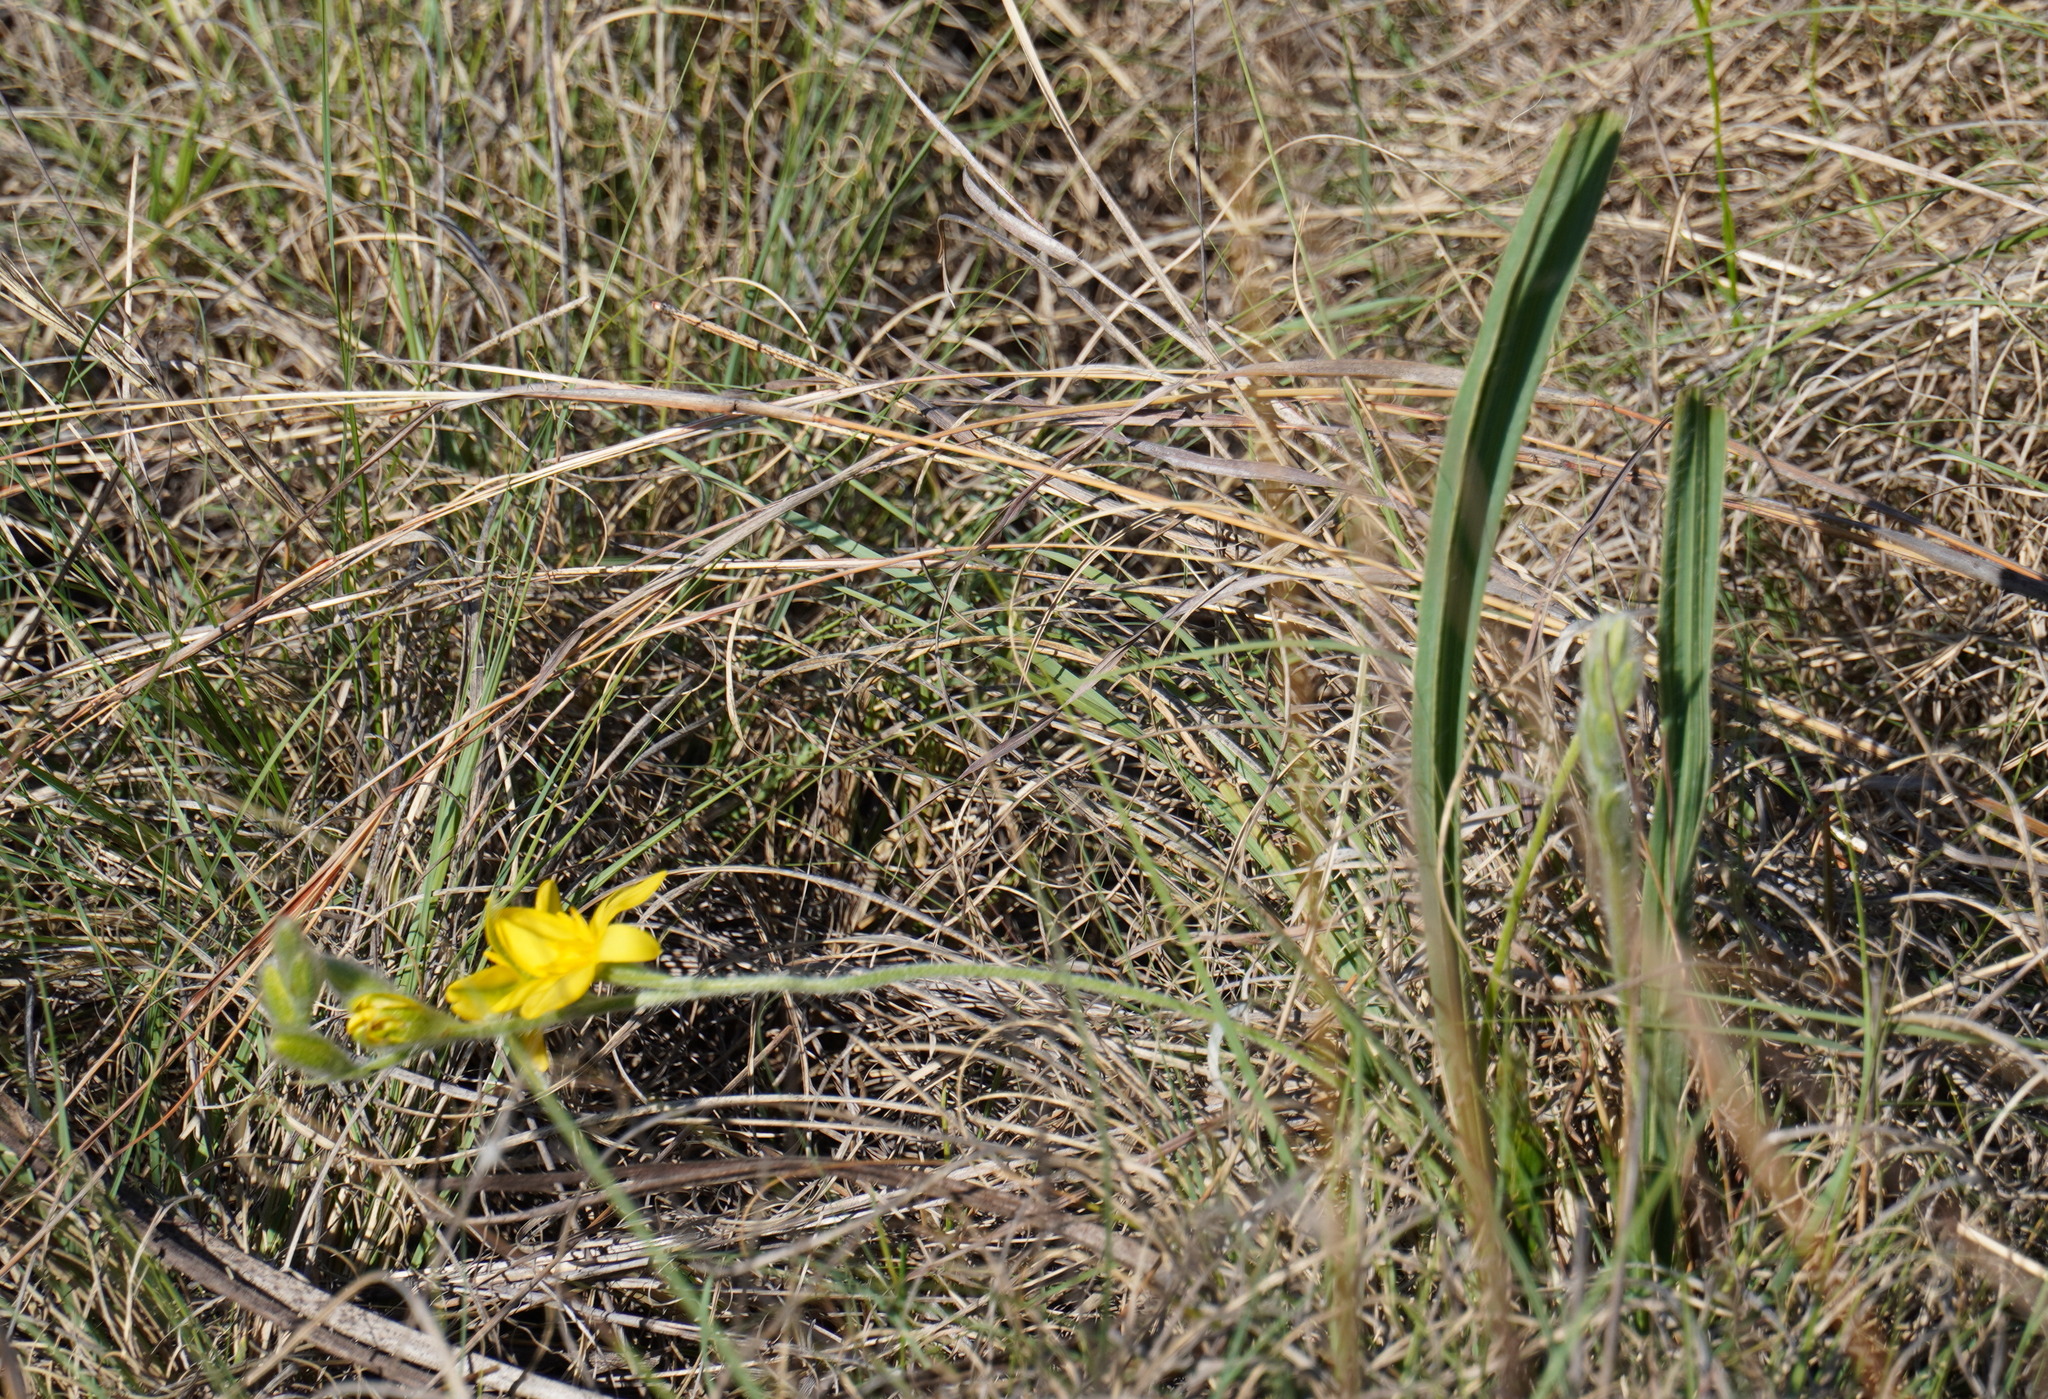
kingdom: Plantae
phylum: Tracheophyta
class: Liliopsida
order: Asparagales
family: Hypoxidaceae
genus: Hypoxis
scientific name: Hypoxis acuminata
